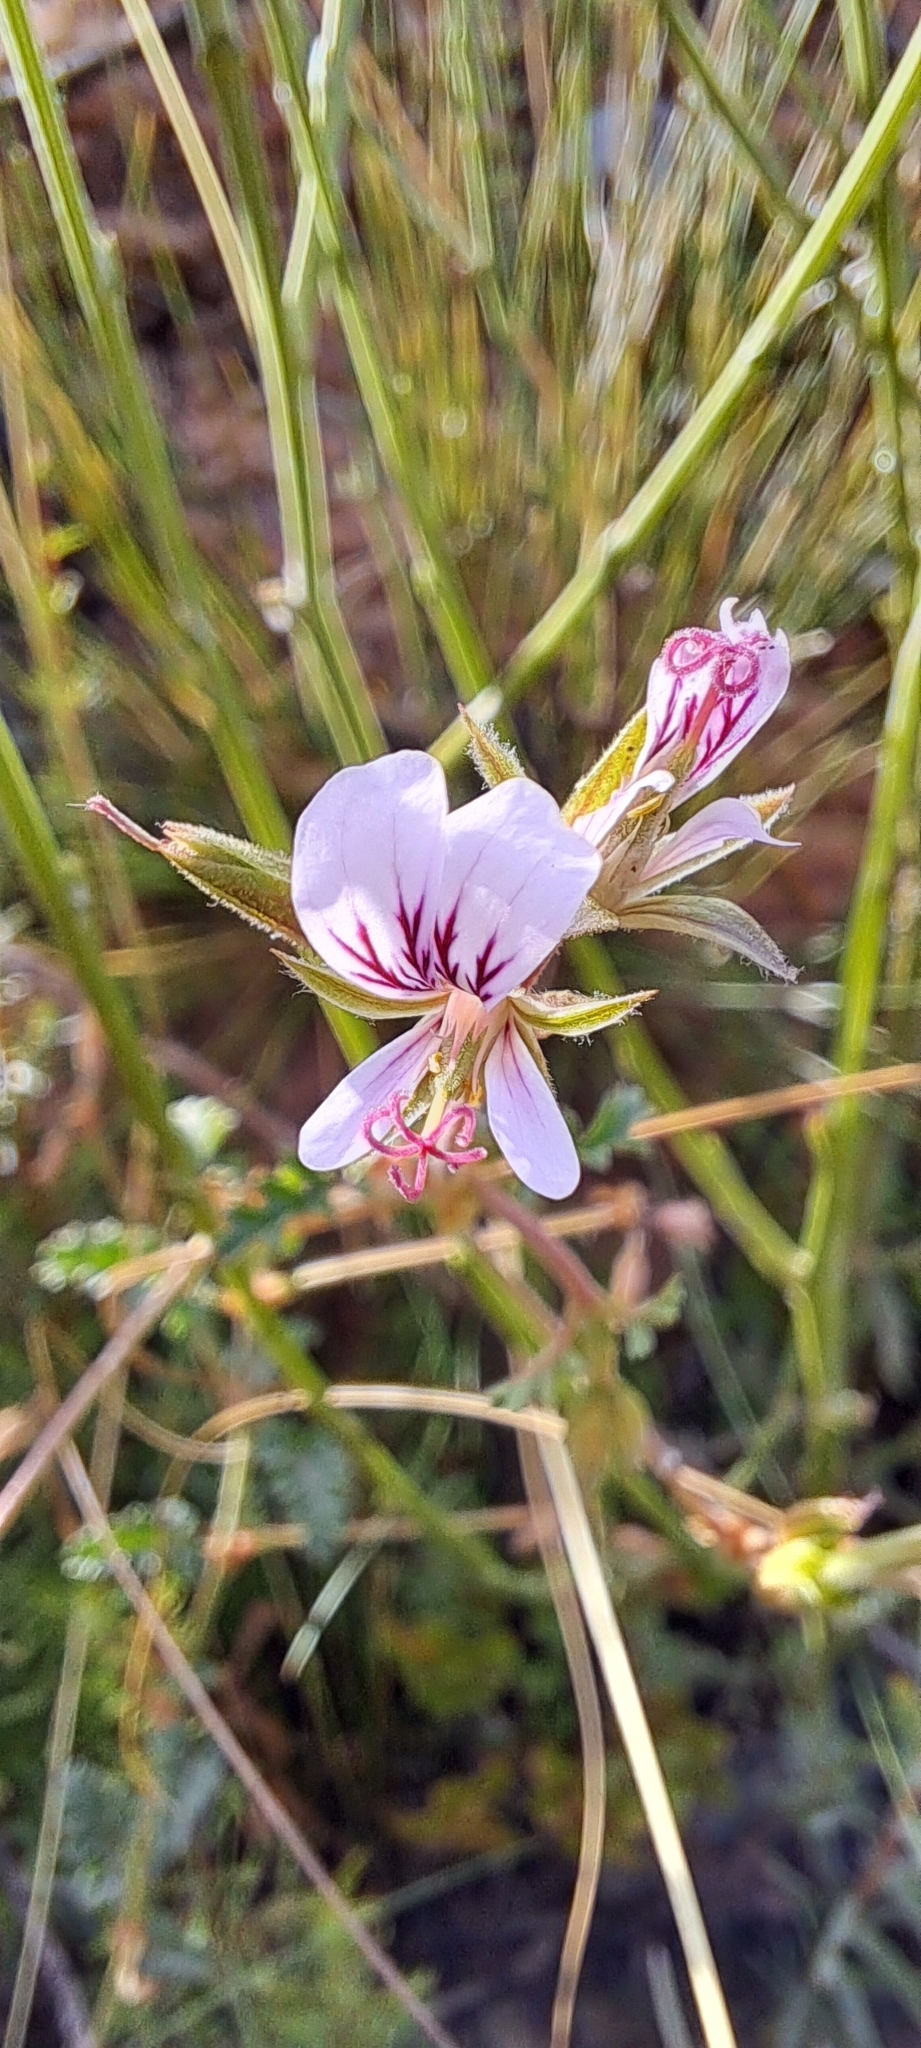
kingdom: Plantae
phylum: Tracheophyta
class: Magnoliopsida
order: Geraniales
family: Geraniaceae
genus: Pelargonium
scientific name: Pelargonium candicans
